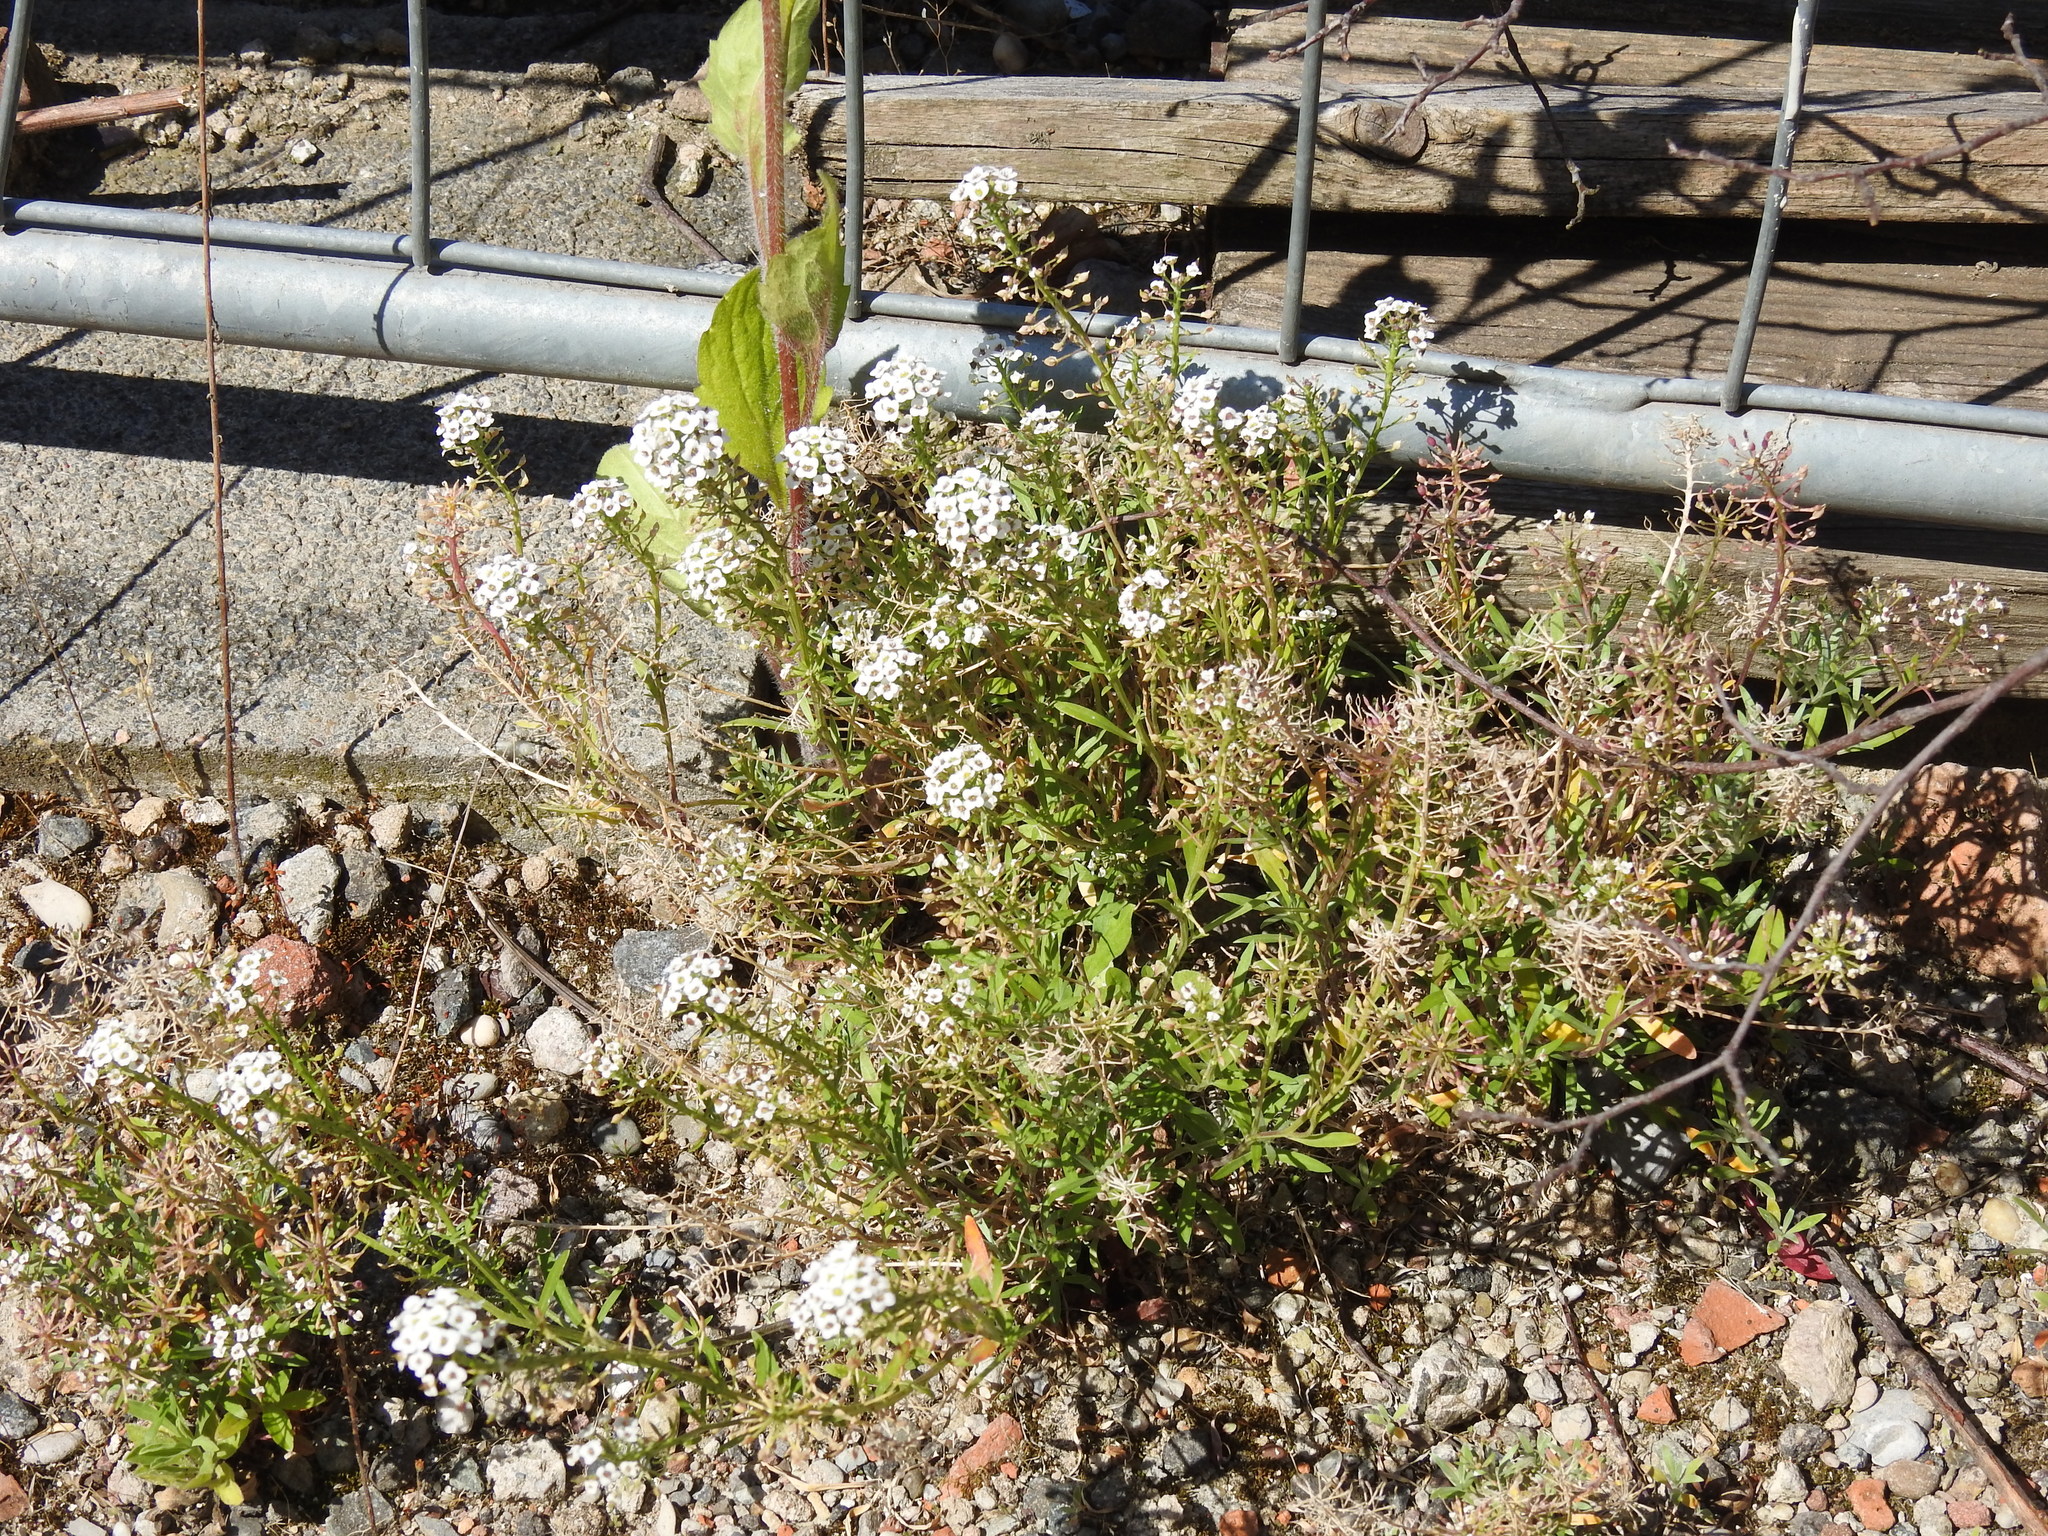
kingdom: Plantae
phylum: Tracheophyta
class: Magnoliopsida
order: Brassicales
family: Brassicaceae
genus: Lobularia
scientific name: Lobularia maritima
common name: Sweet alison
